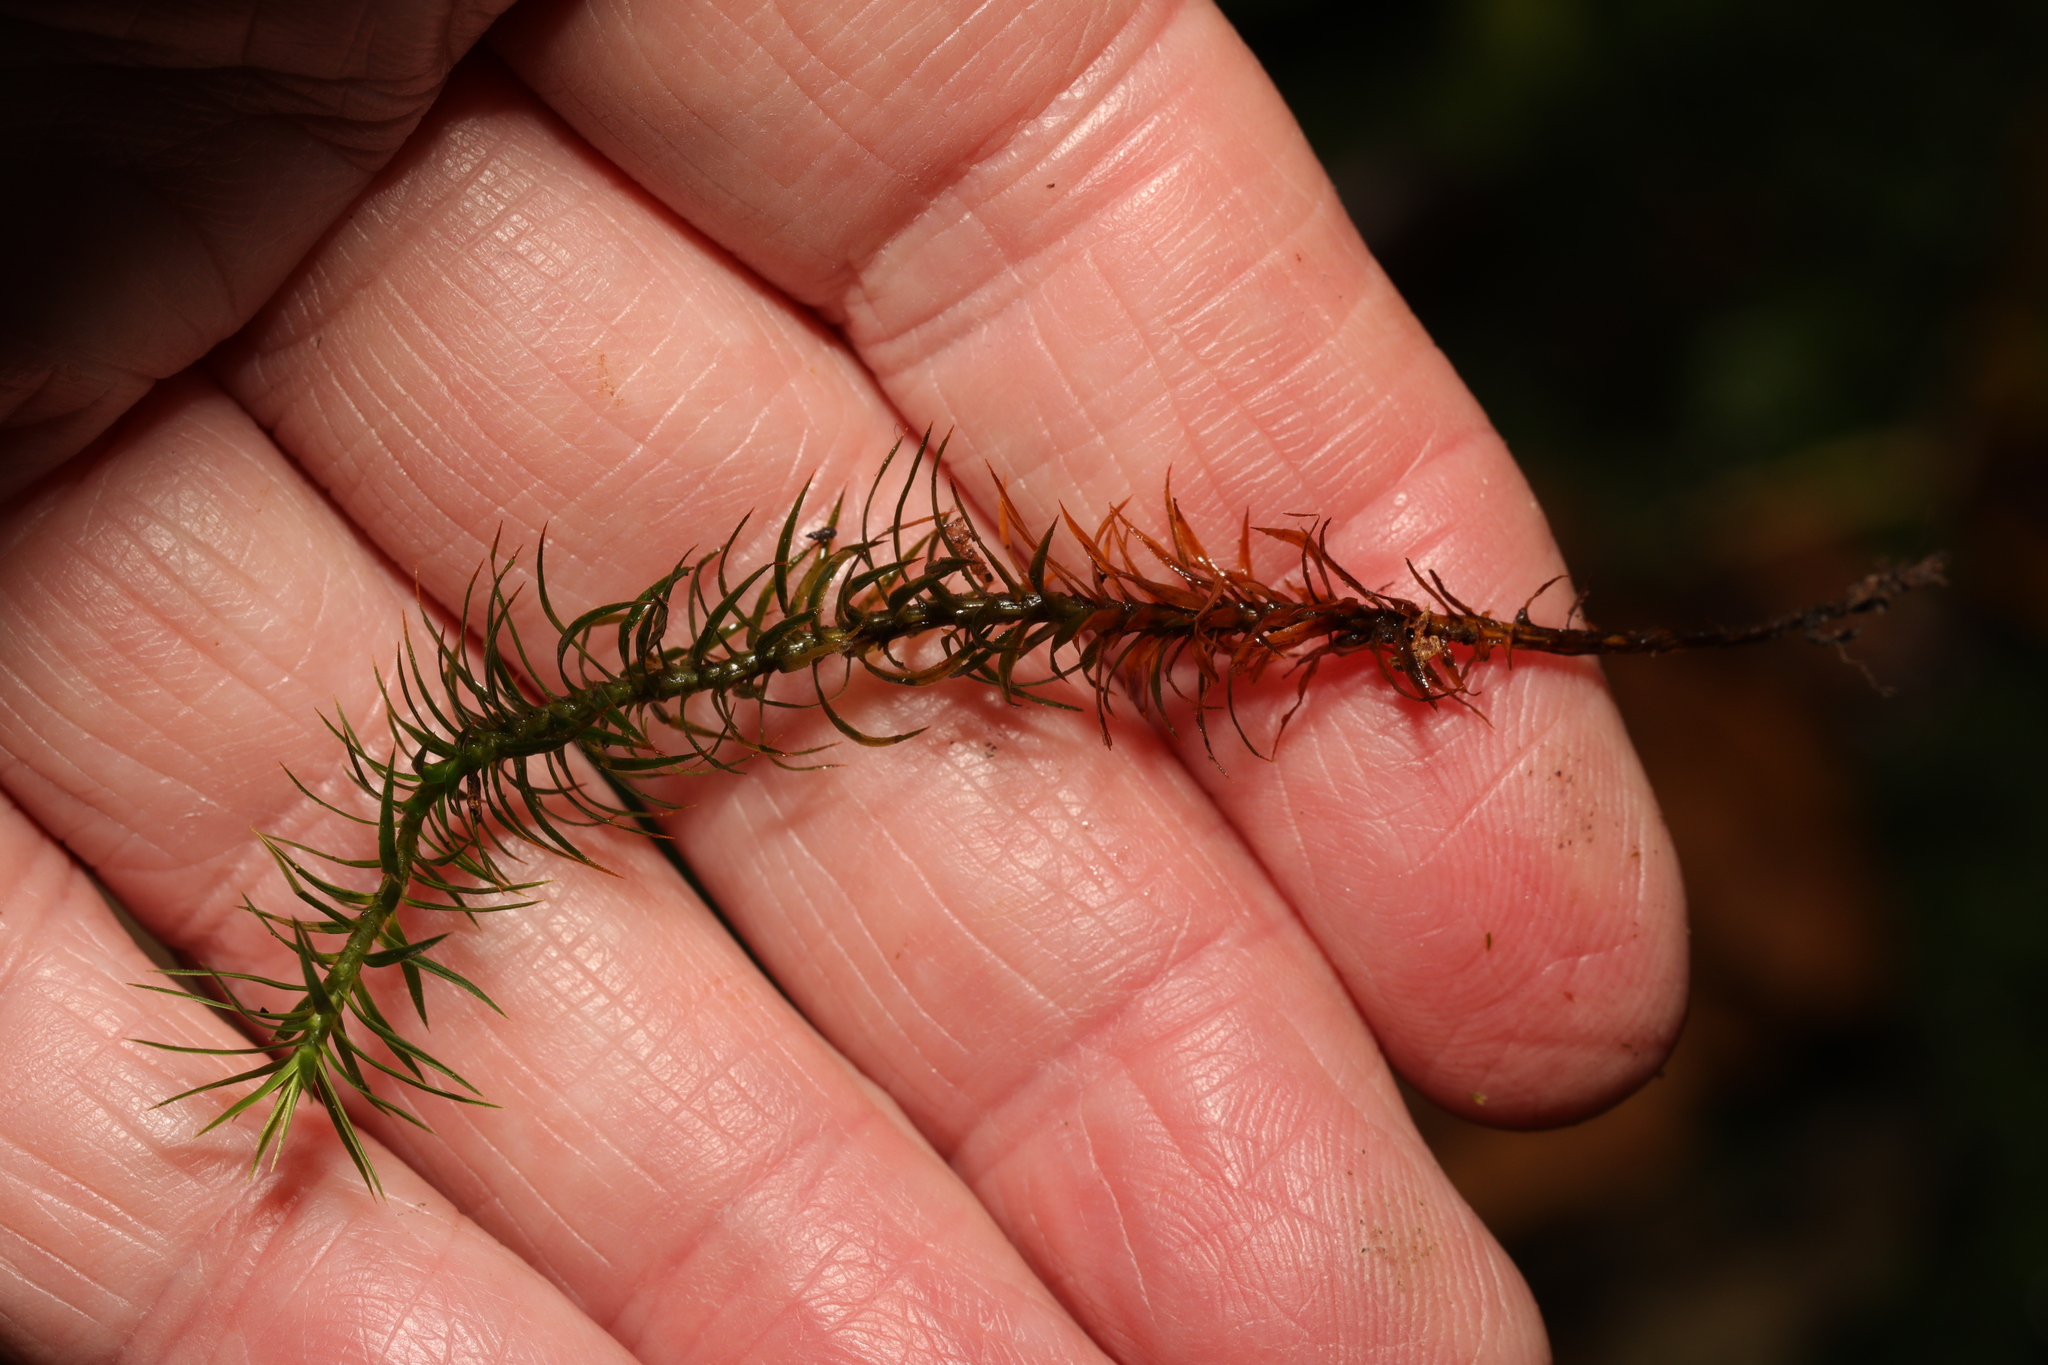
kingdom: Plantae
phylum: Bryophyta
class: Polytrichopsida
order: Polytrichales
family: Polytrichaceae
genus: Polytrichum
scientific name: Polytrichum formosum
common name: Bank haircap moss
